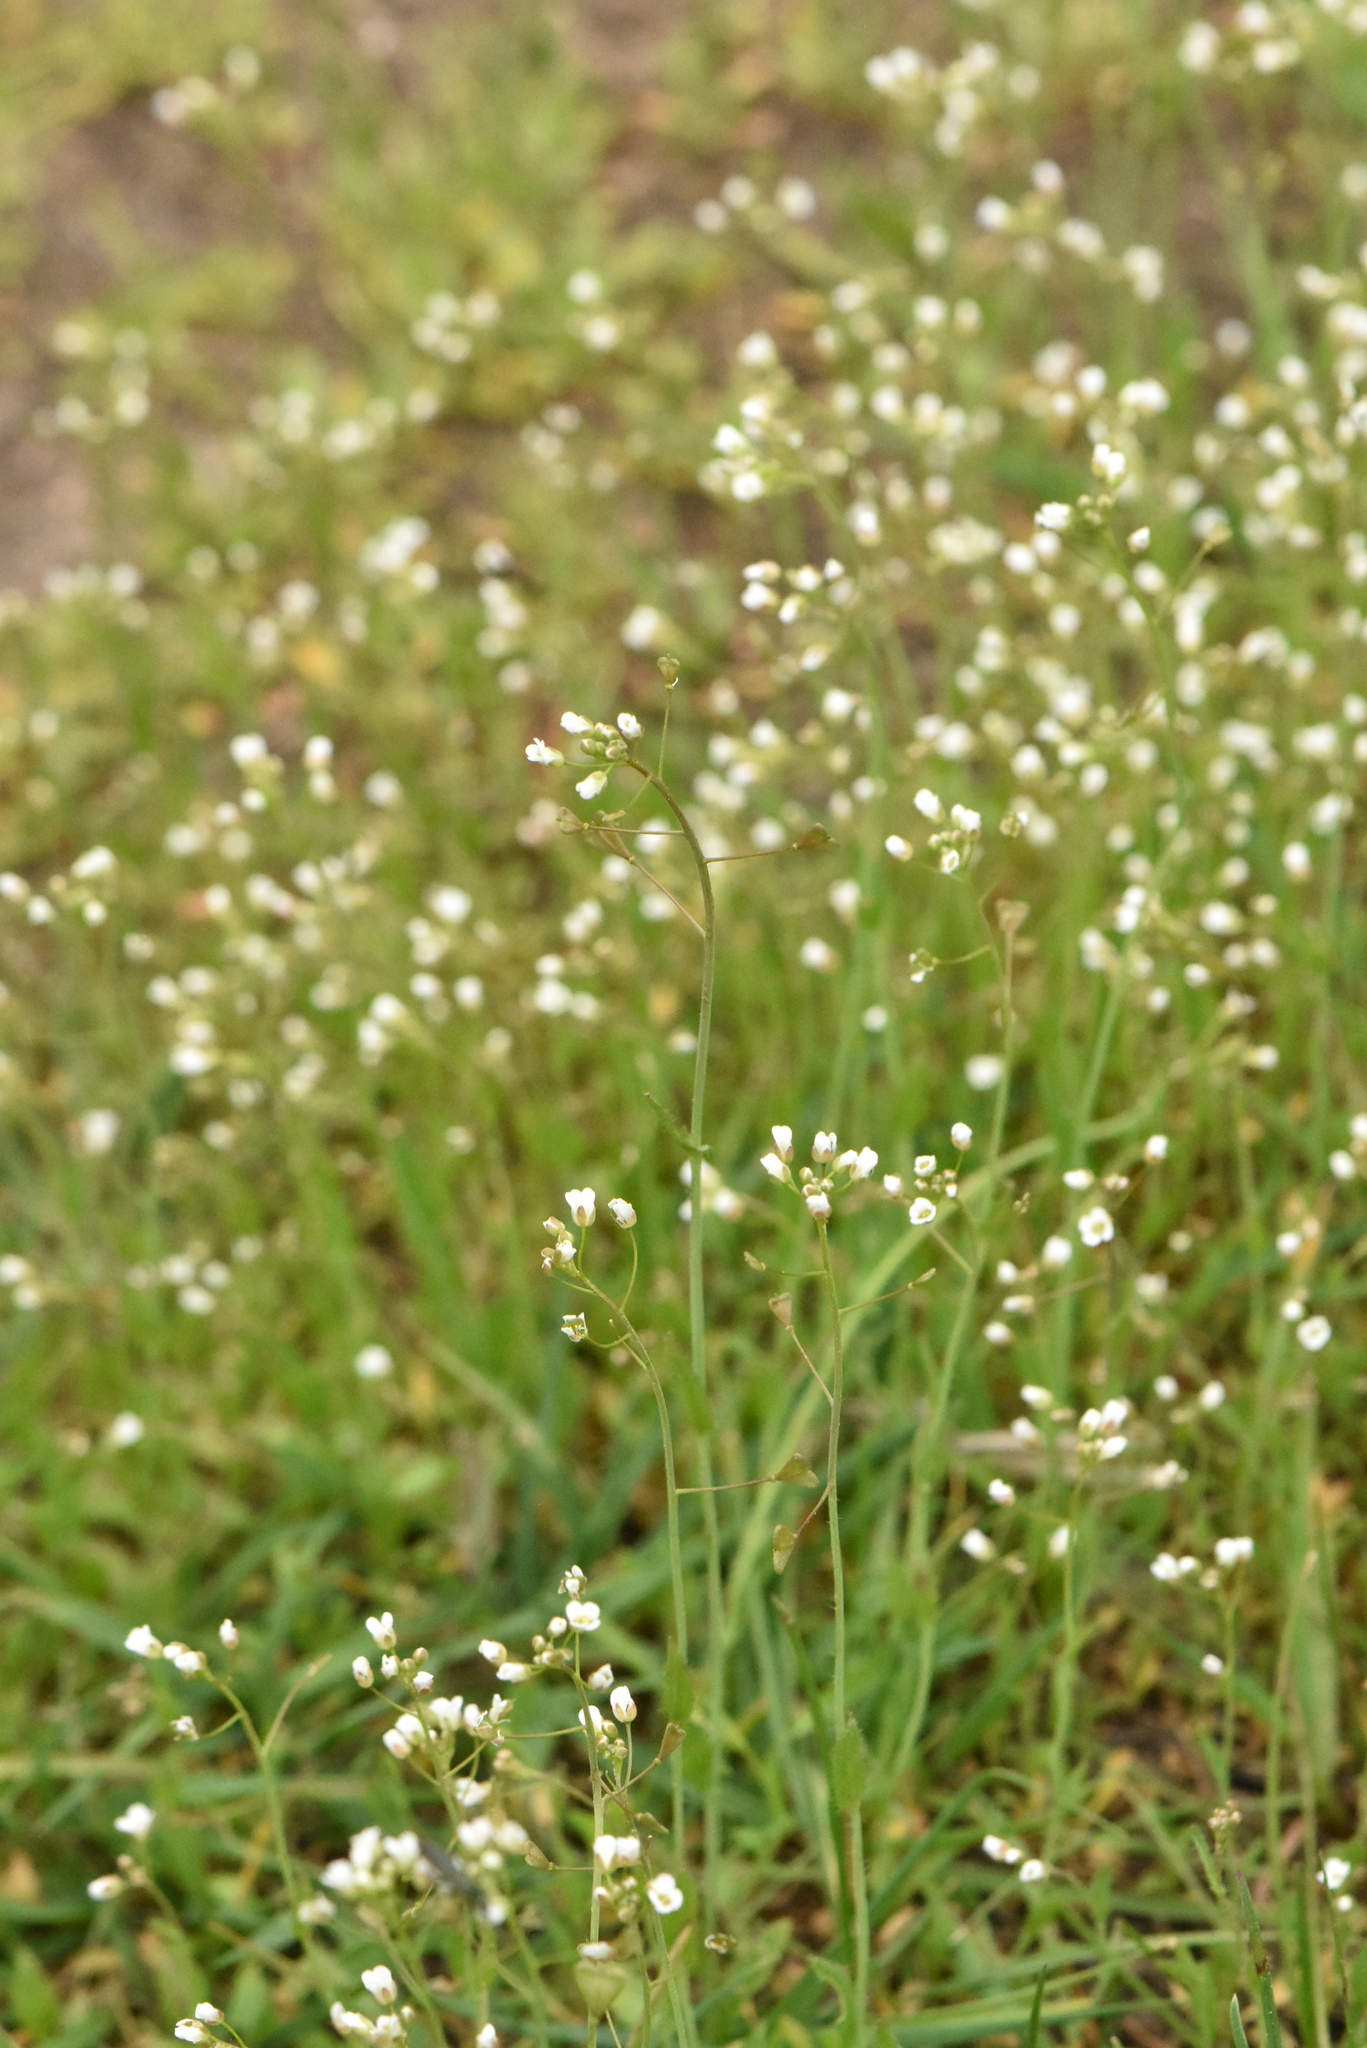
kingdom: Plantae
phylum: Tracheophyta
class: Magnoliopsida
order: Brassicales
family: Brassicaceae
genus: Capsella
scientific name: Capsella bursa-pastoris
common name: Shepherd's purse
